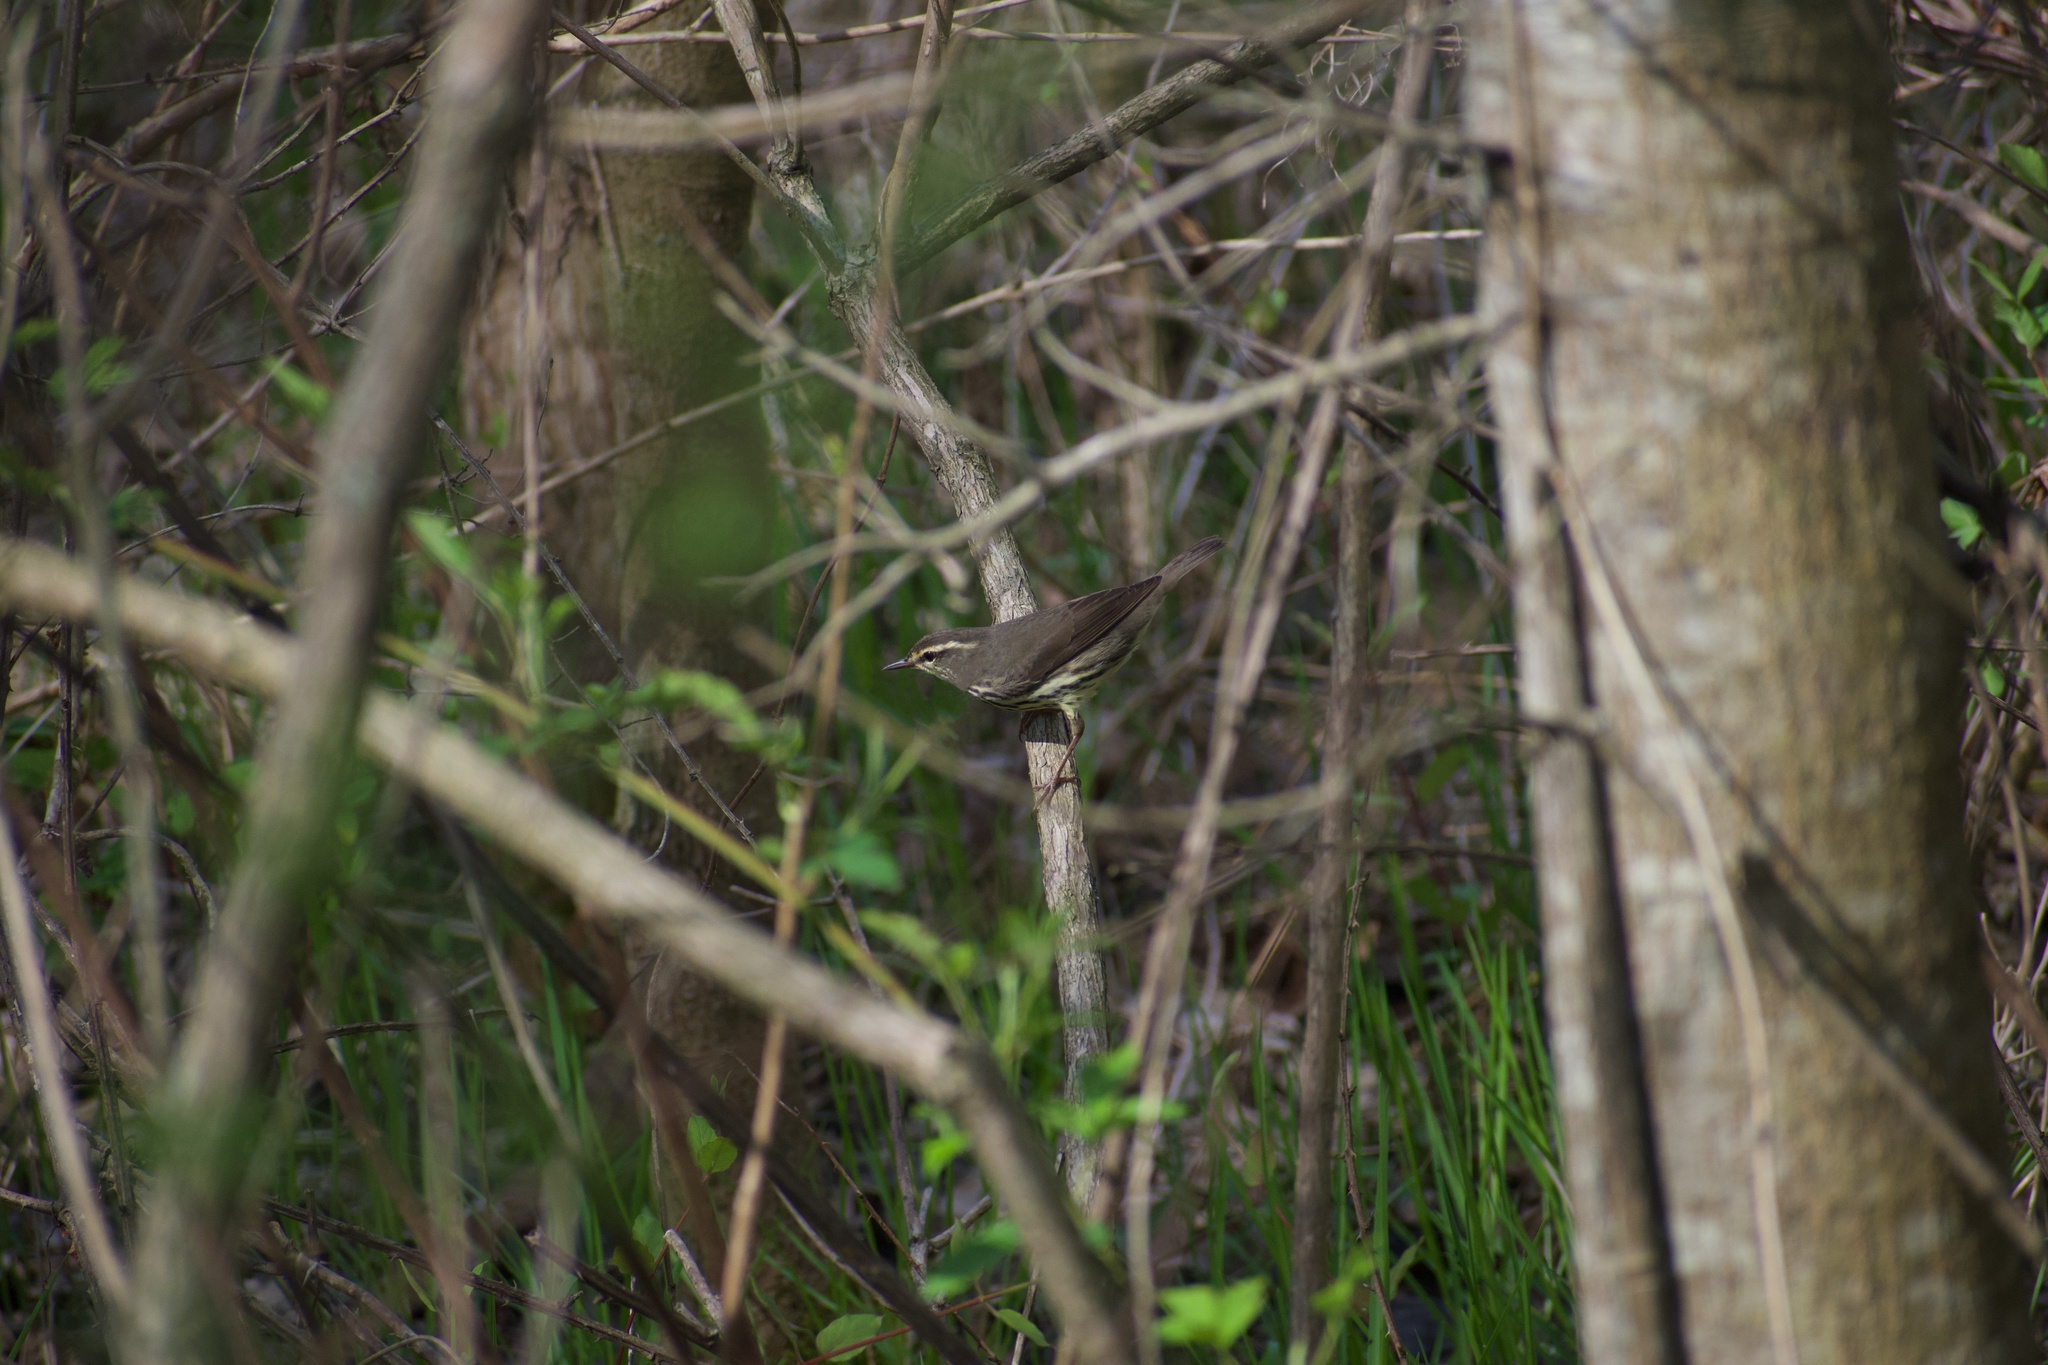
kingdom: Animalia
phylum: Chordata
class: Aves
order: Passeriformes
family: Parulidae
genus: Parkesia
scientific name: Parkesia noveboracensis
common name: Northern waterthrush
